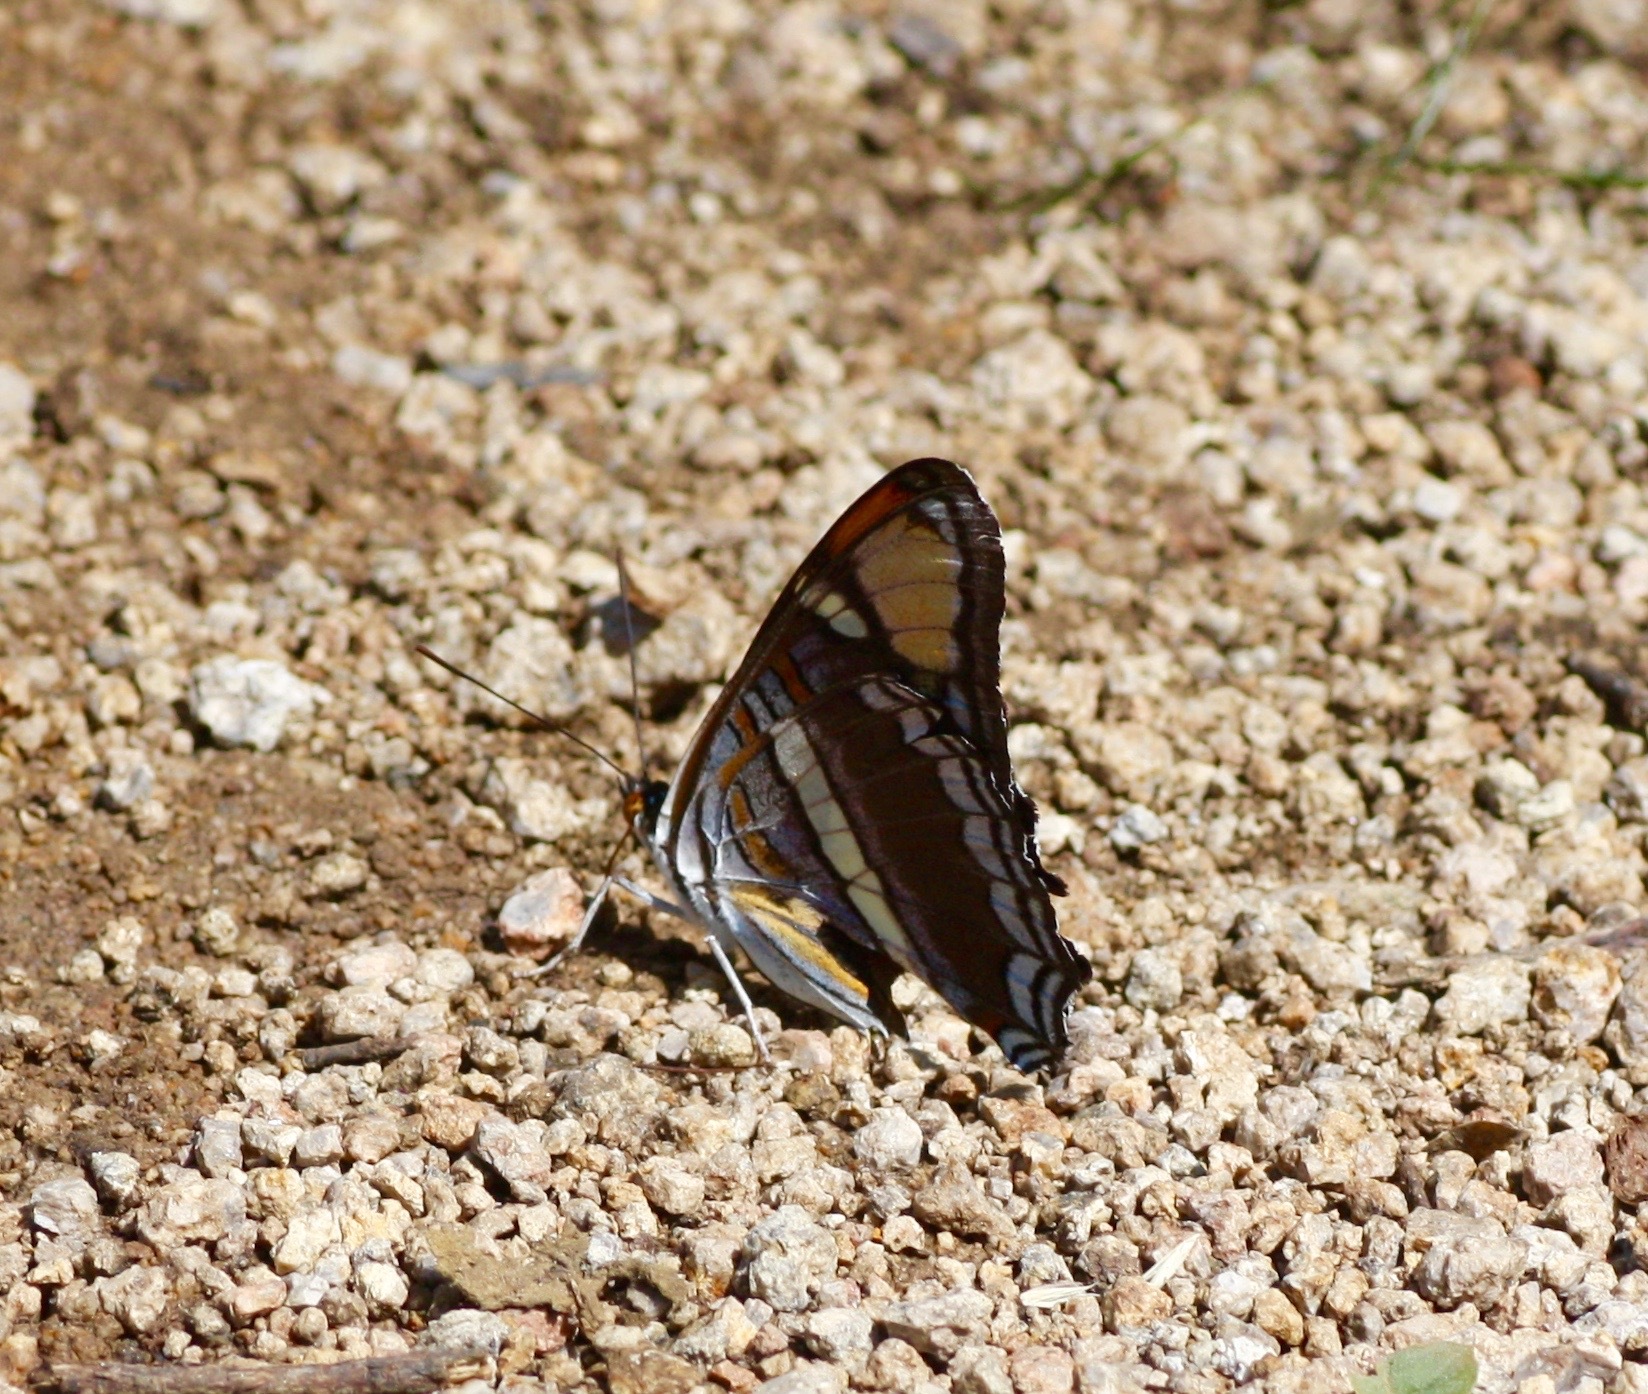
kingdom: Animalia
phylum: Arthropoda
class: Insecta
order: Lepidoptera
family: Nymphalidae
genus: Limenitis
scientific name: Limenitis bredowii
